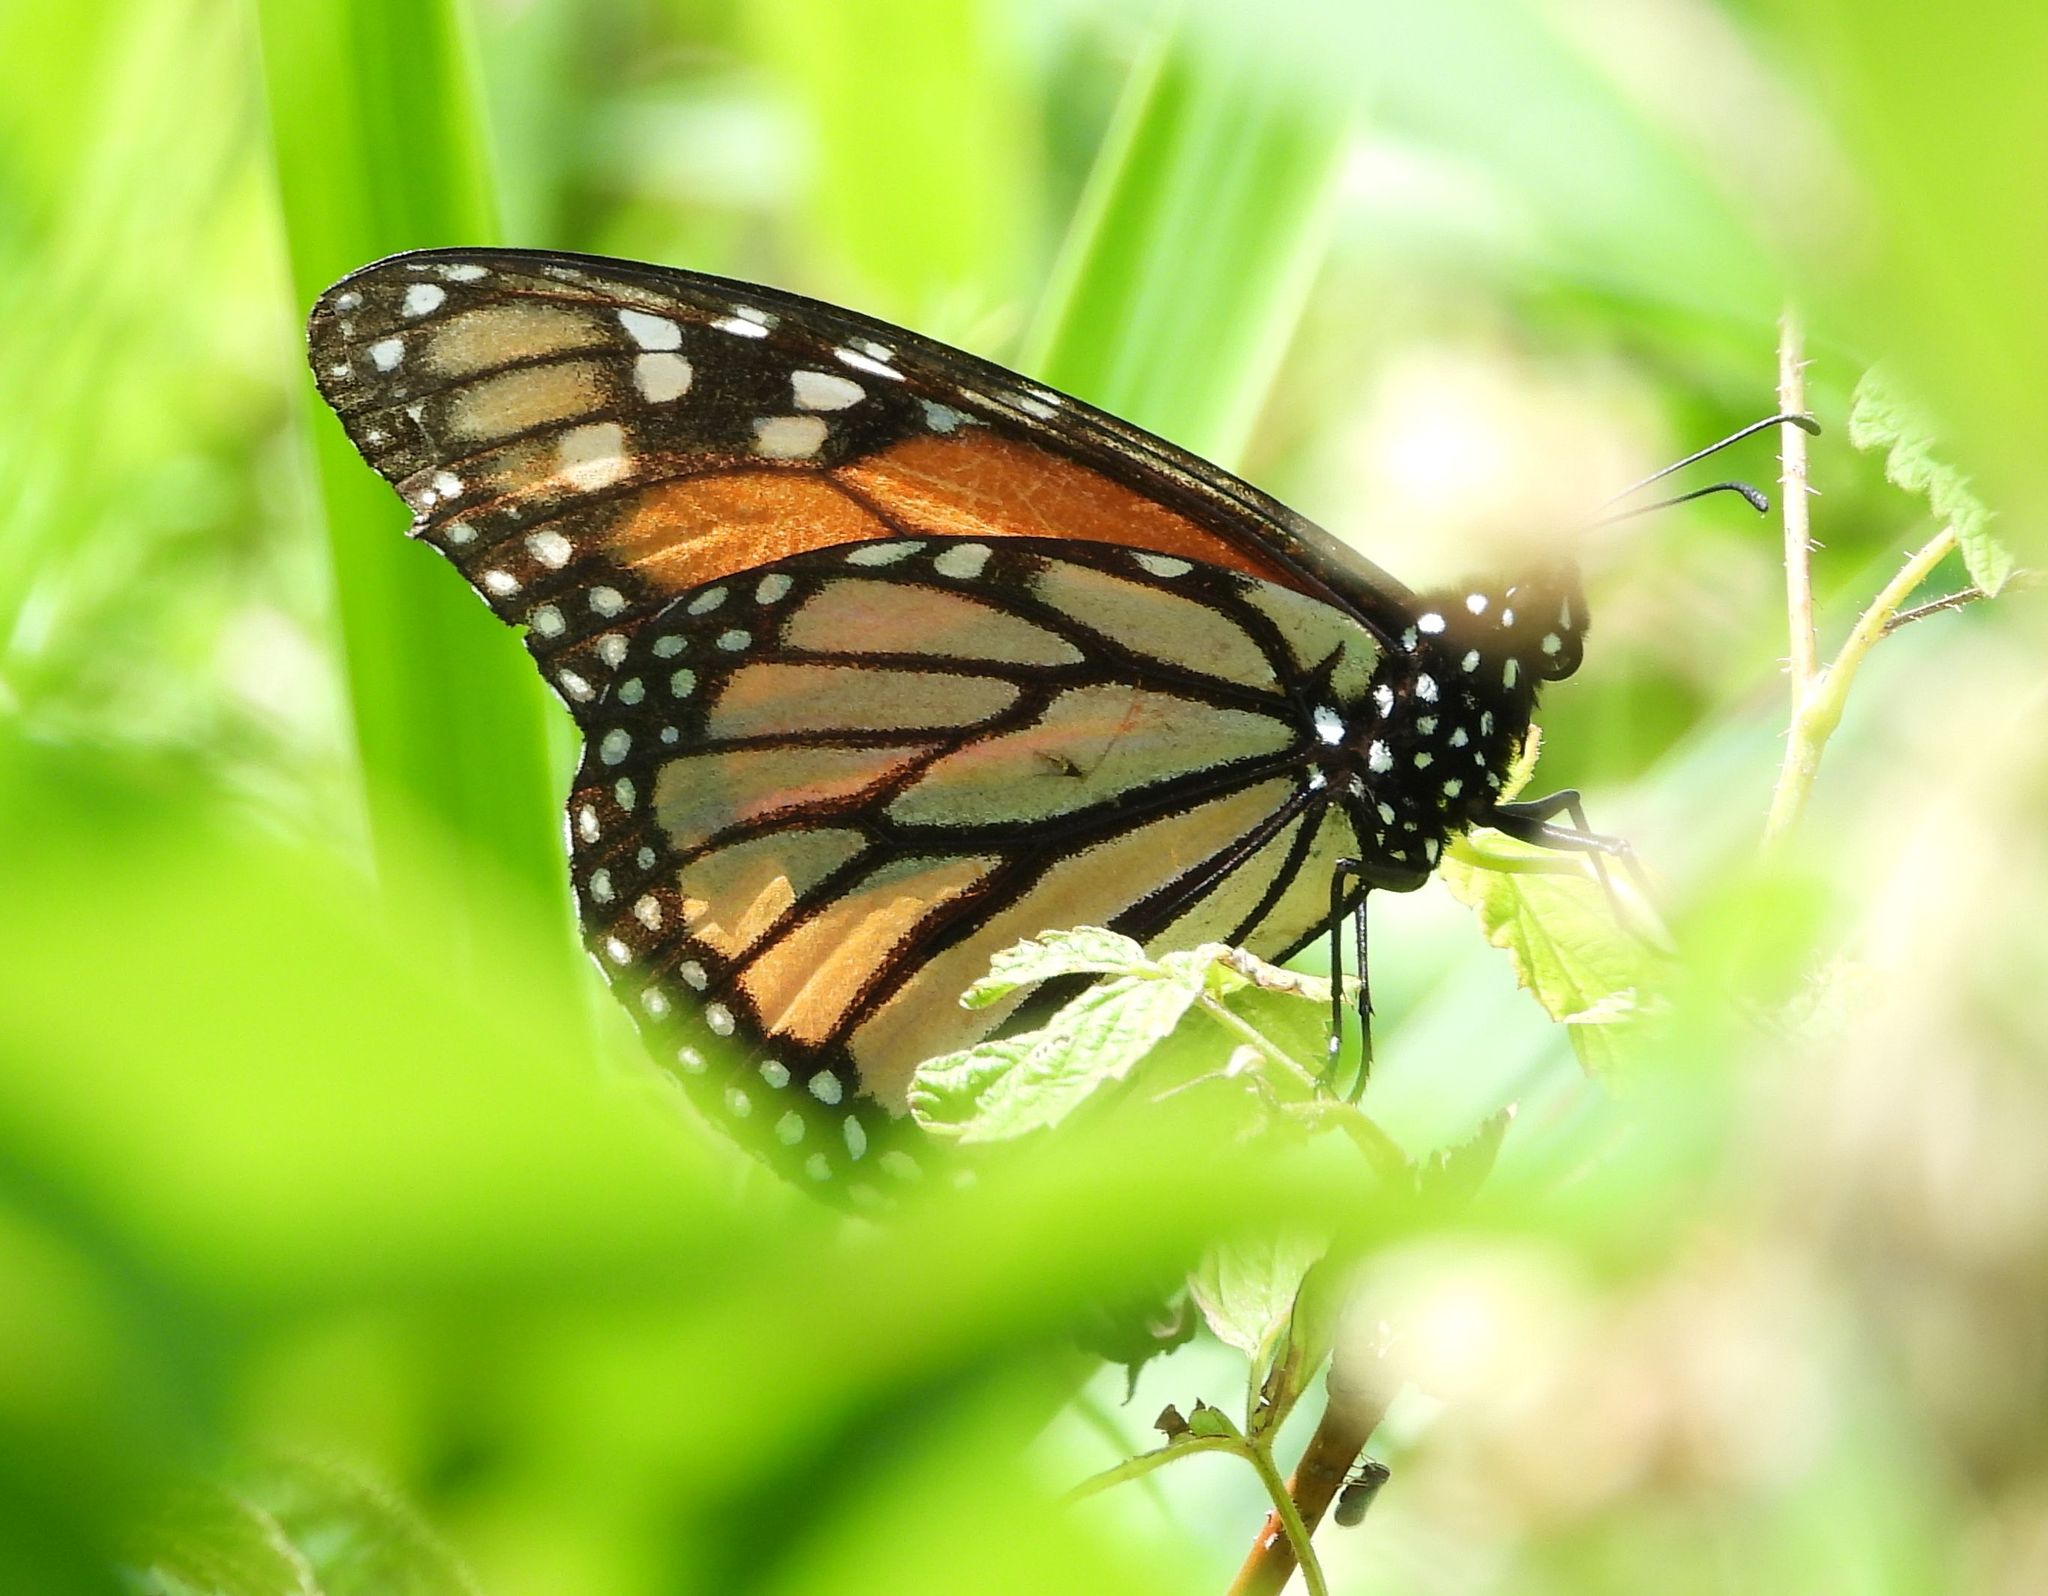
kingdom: Animalia
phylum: Arthropoda
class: Insecta
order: Lepidoptera
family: Nymphalidae
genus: Danaus
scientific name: Danaus plexippus
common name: Monarch
